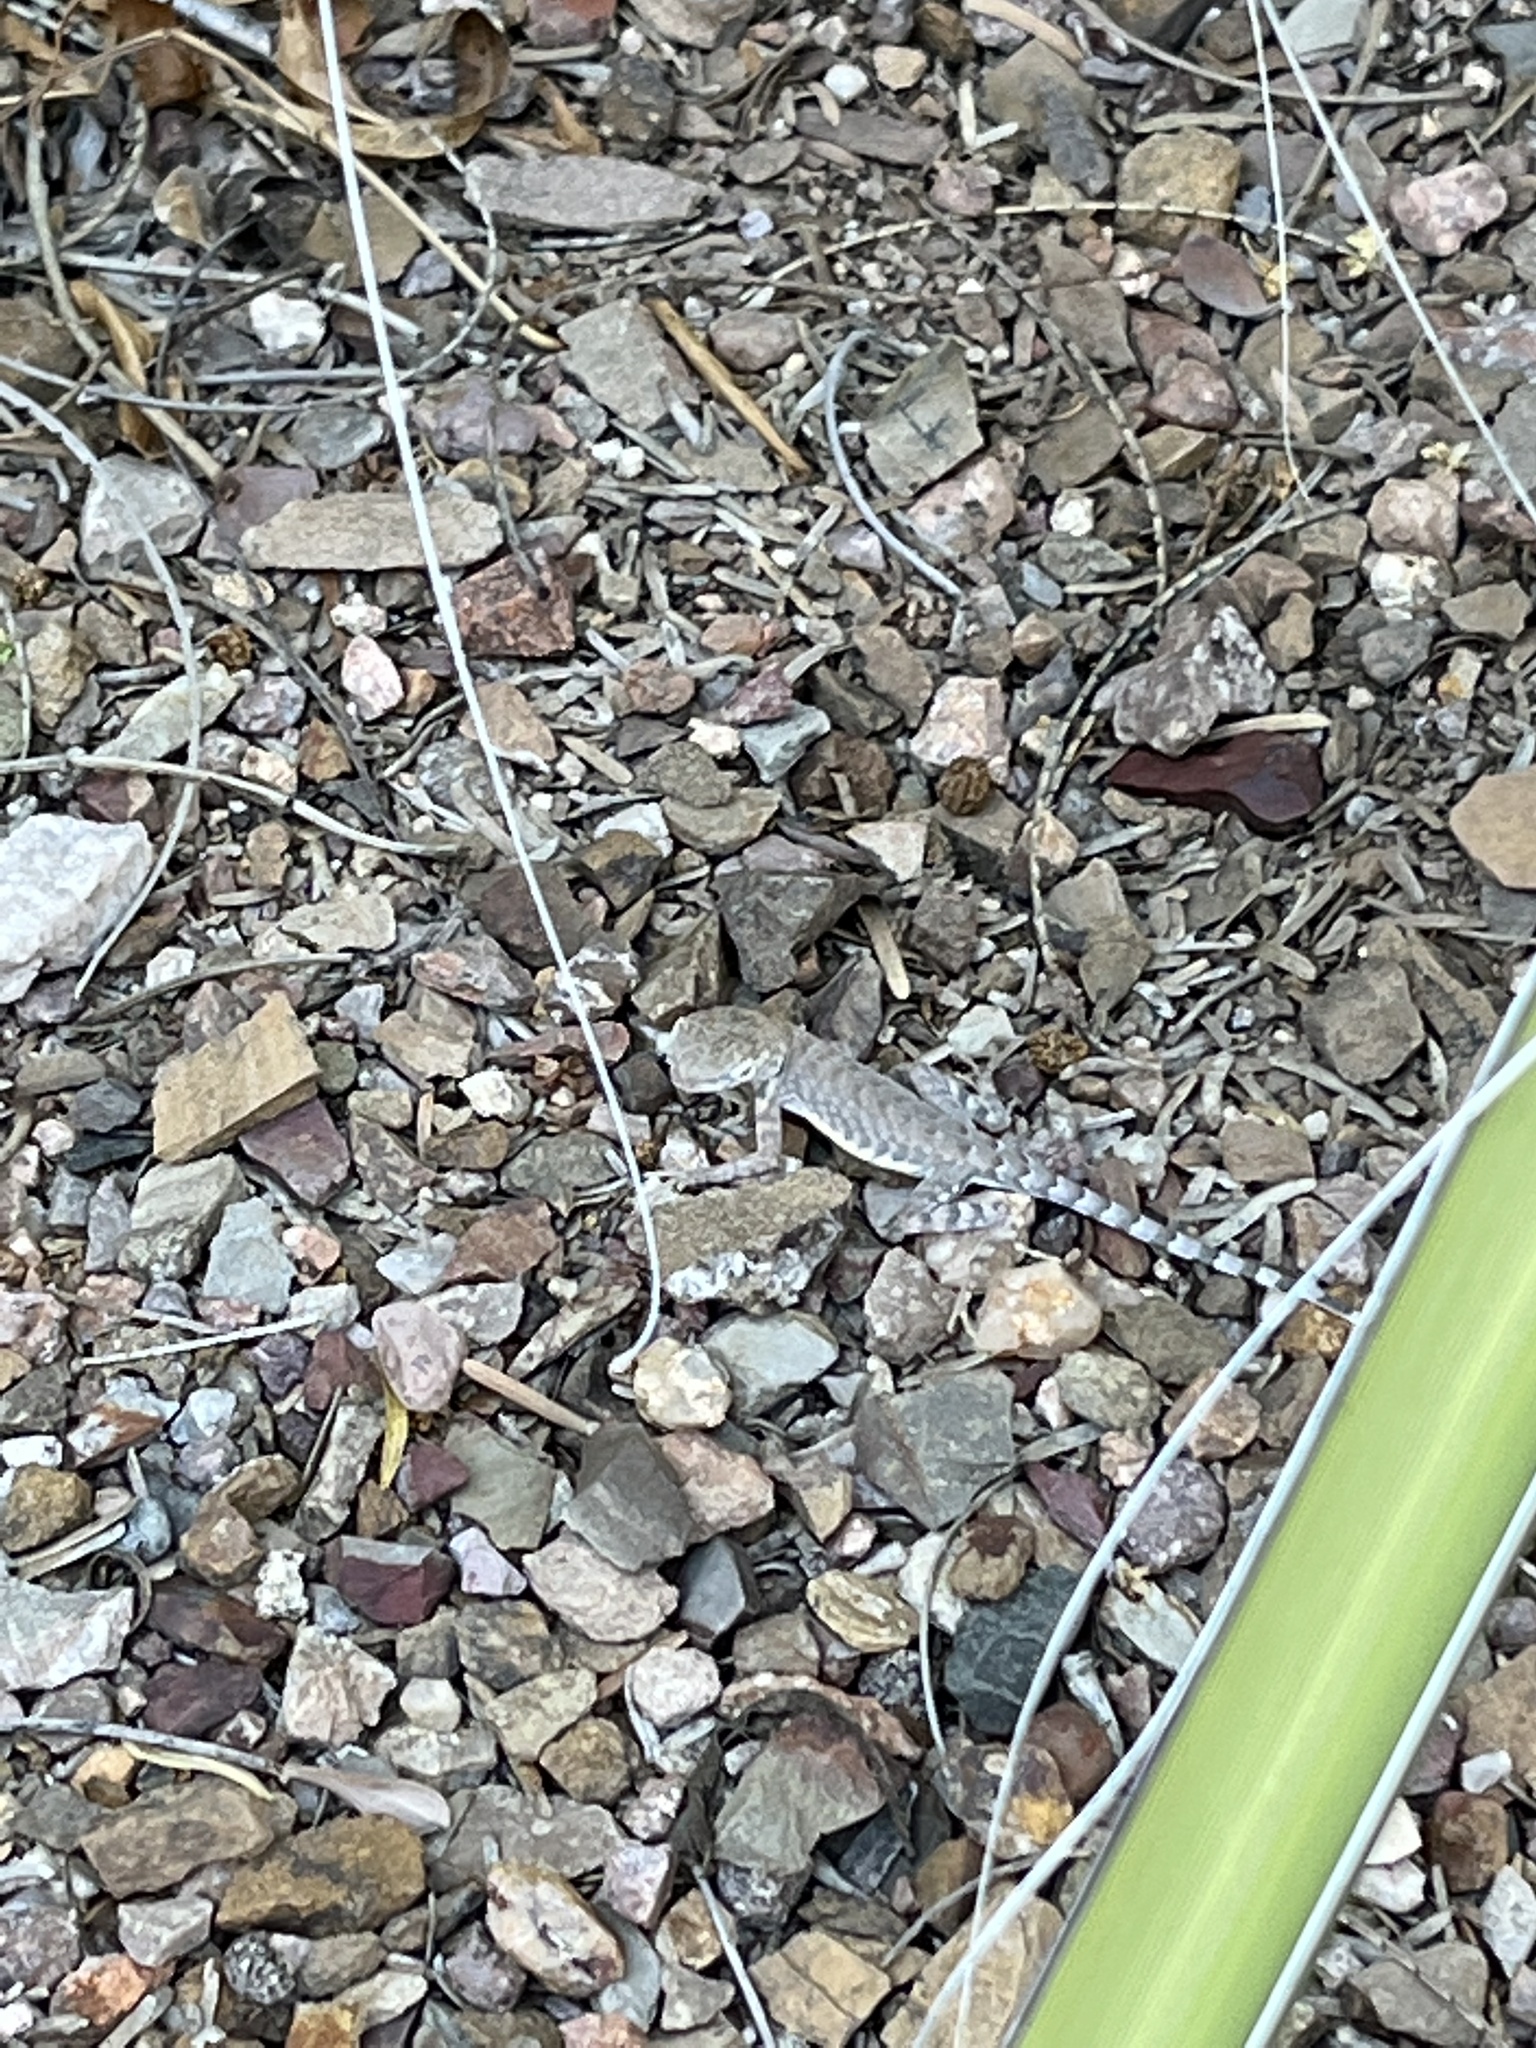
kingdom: Animalia
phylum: Chordata
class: Squamata
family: Phrynosomatidae
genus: Cophosaurus
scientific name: Cophosaurus texanus
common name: Greater earless lizard
